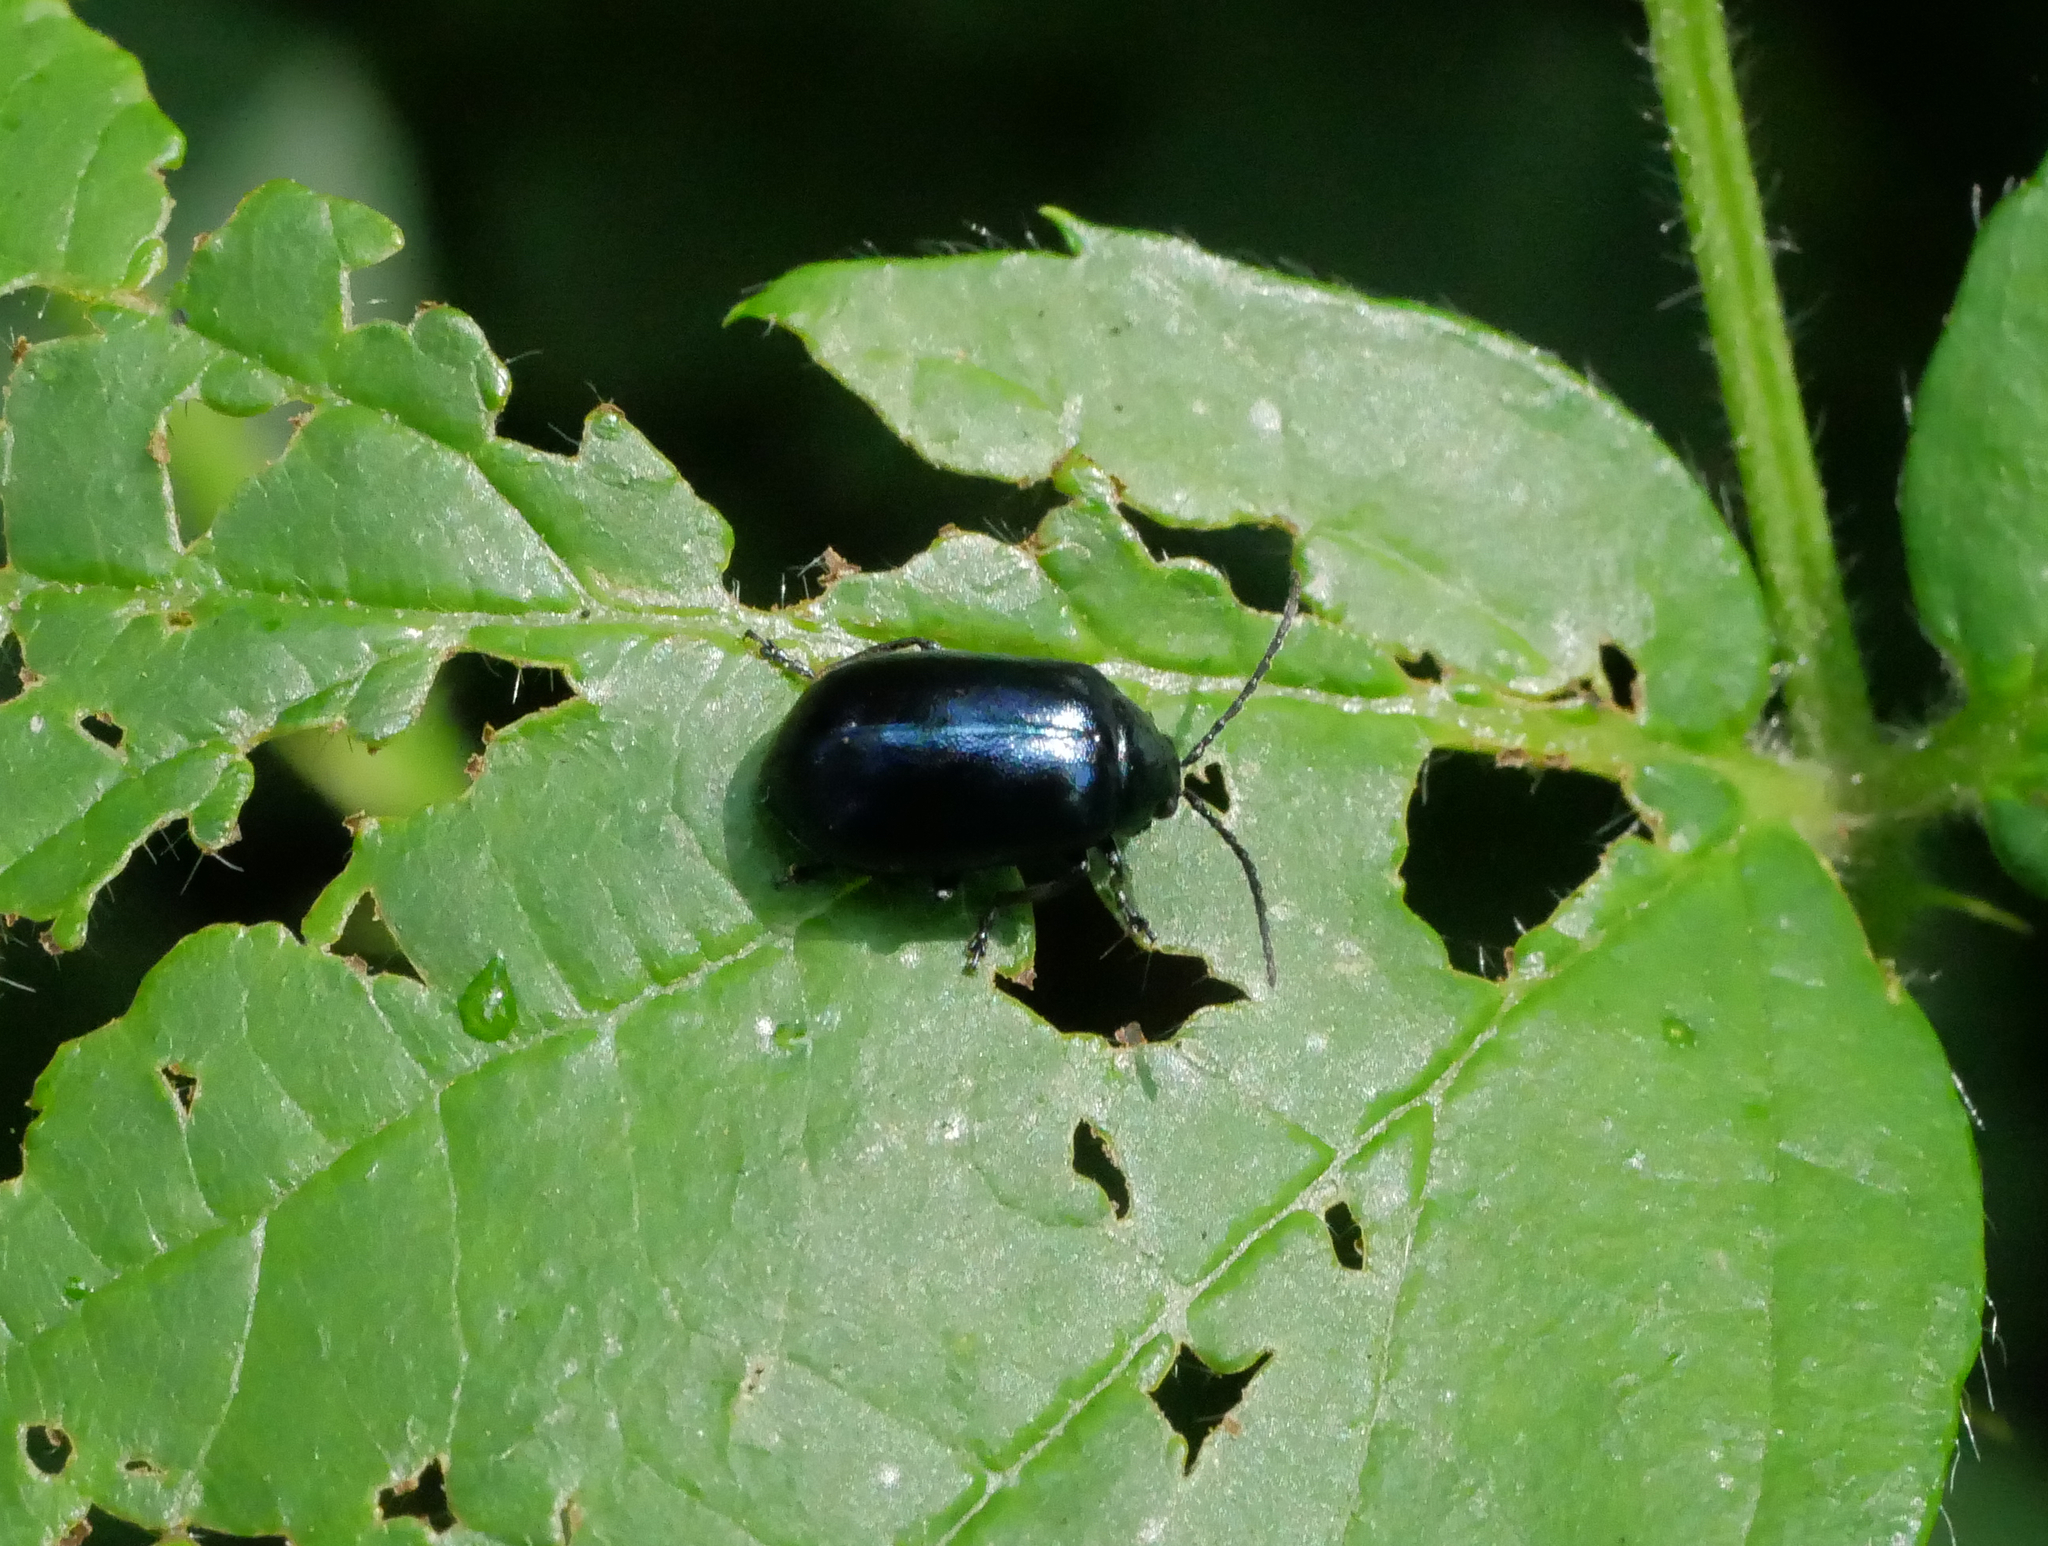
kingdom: Animalia
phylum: Arthropoda
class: Insecta
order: Coleoptera
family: Chrysomelidae
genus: Agelastica
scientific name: Agelastica alni
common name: Alder leaf beetle
